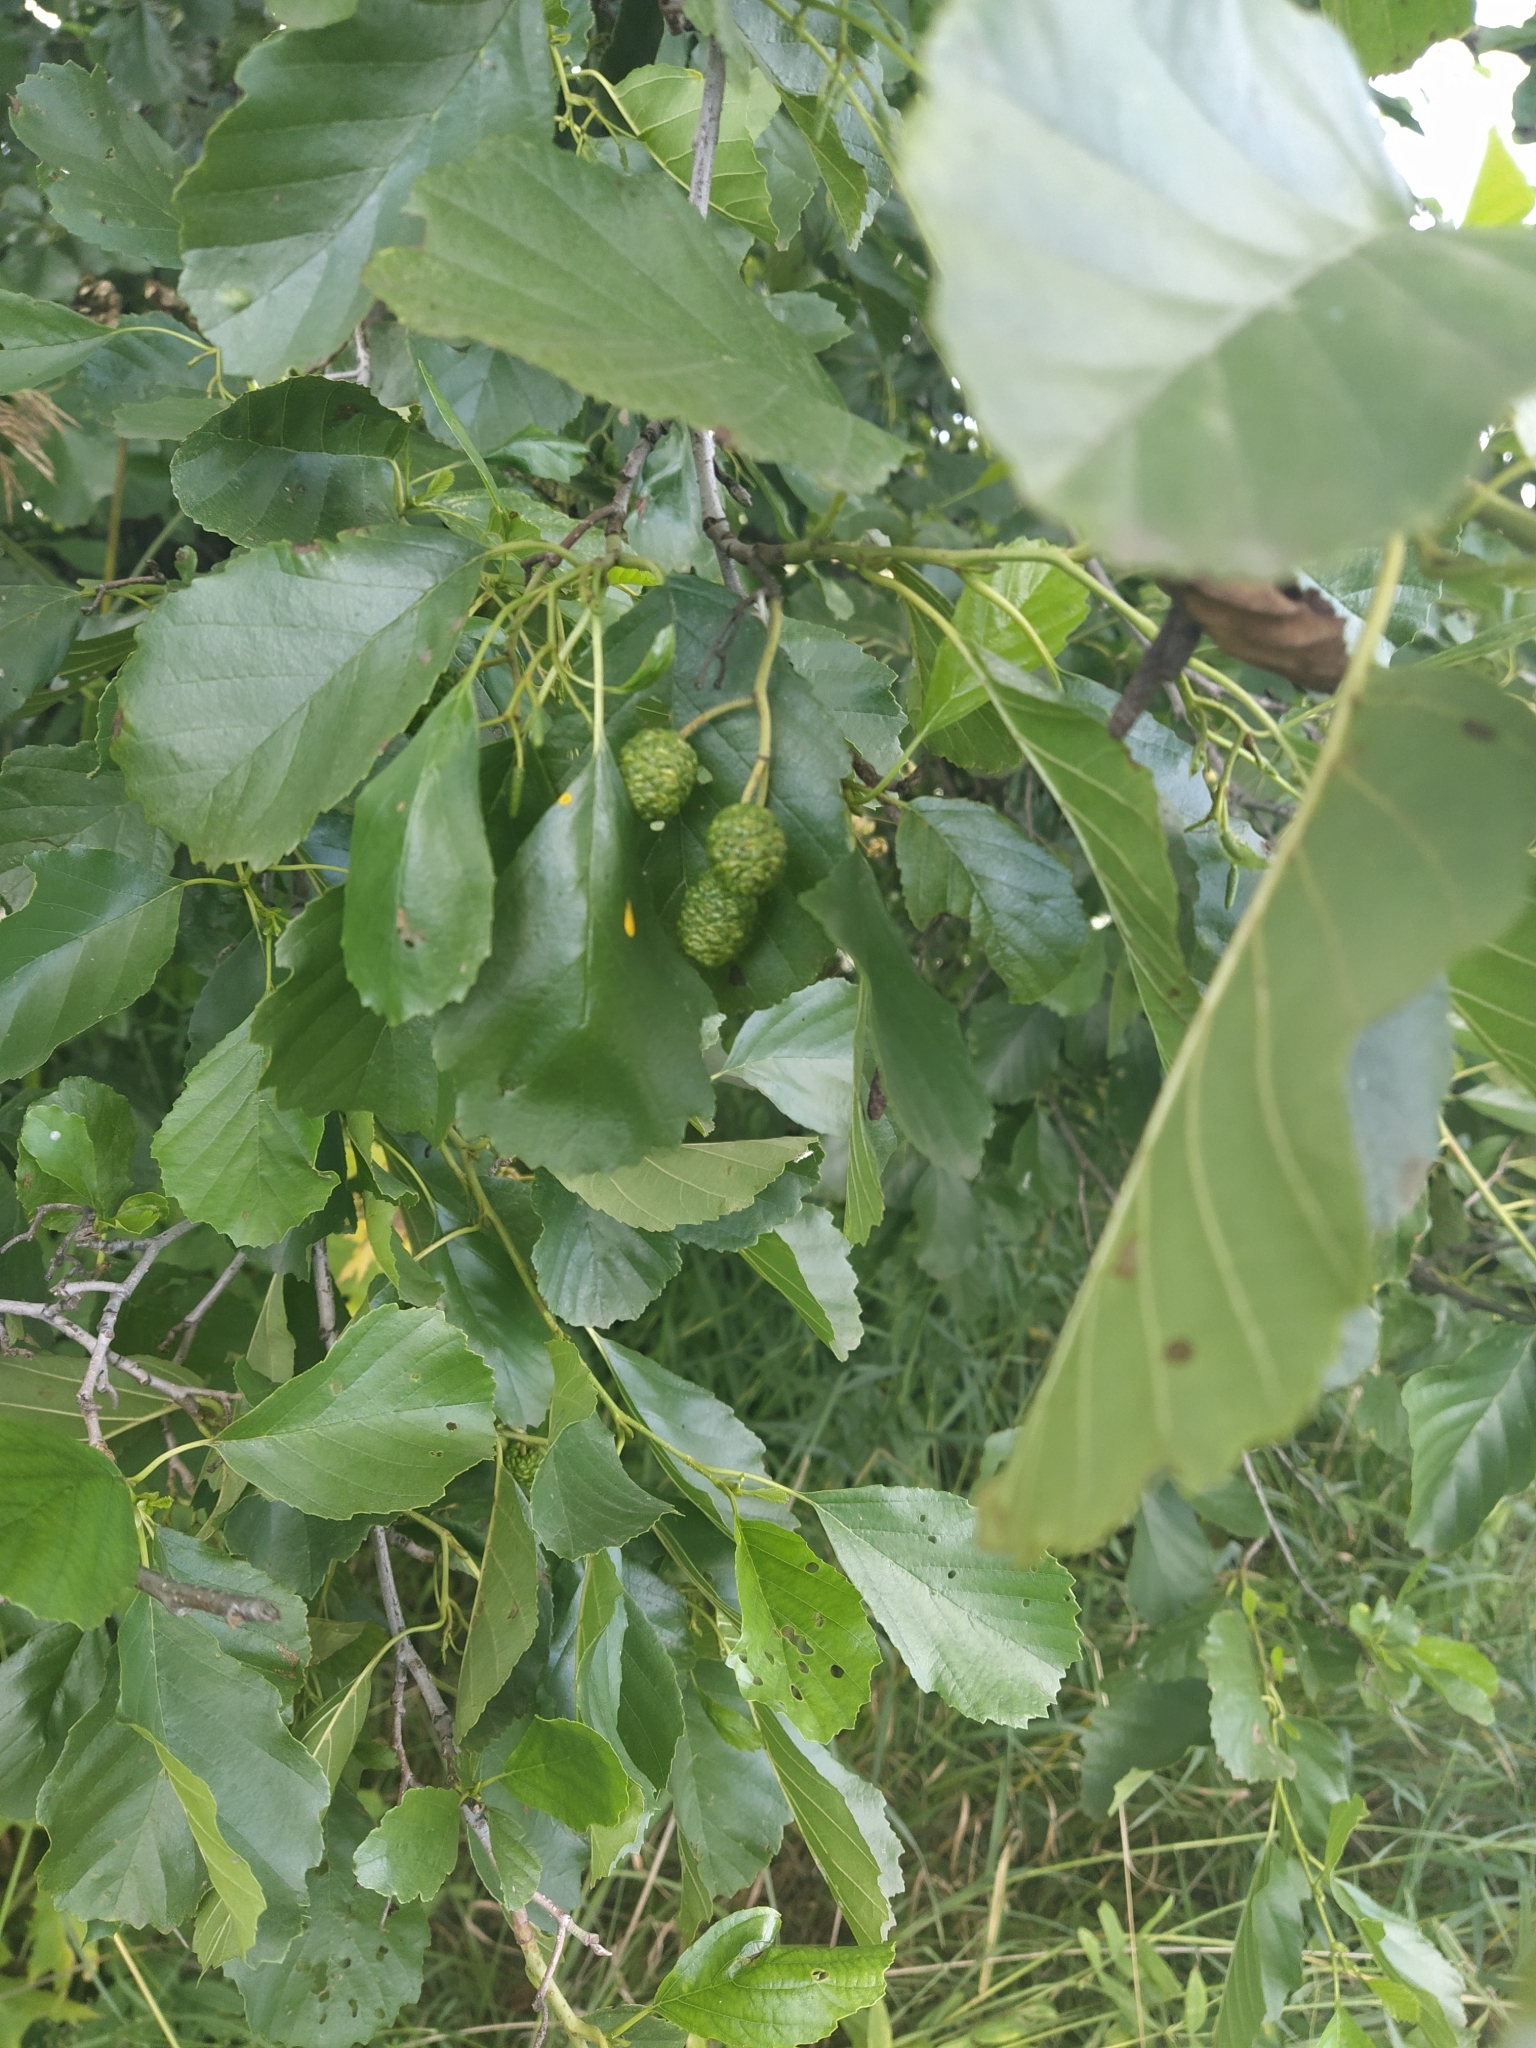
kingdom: Plantae
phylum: Tracheophyta
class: Magnoliopsida
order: Fagales
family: Betulaceae
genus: Alnus
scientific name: Alnus glutinosa
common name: Black alder
